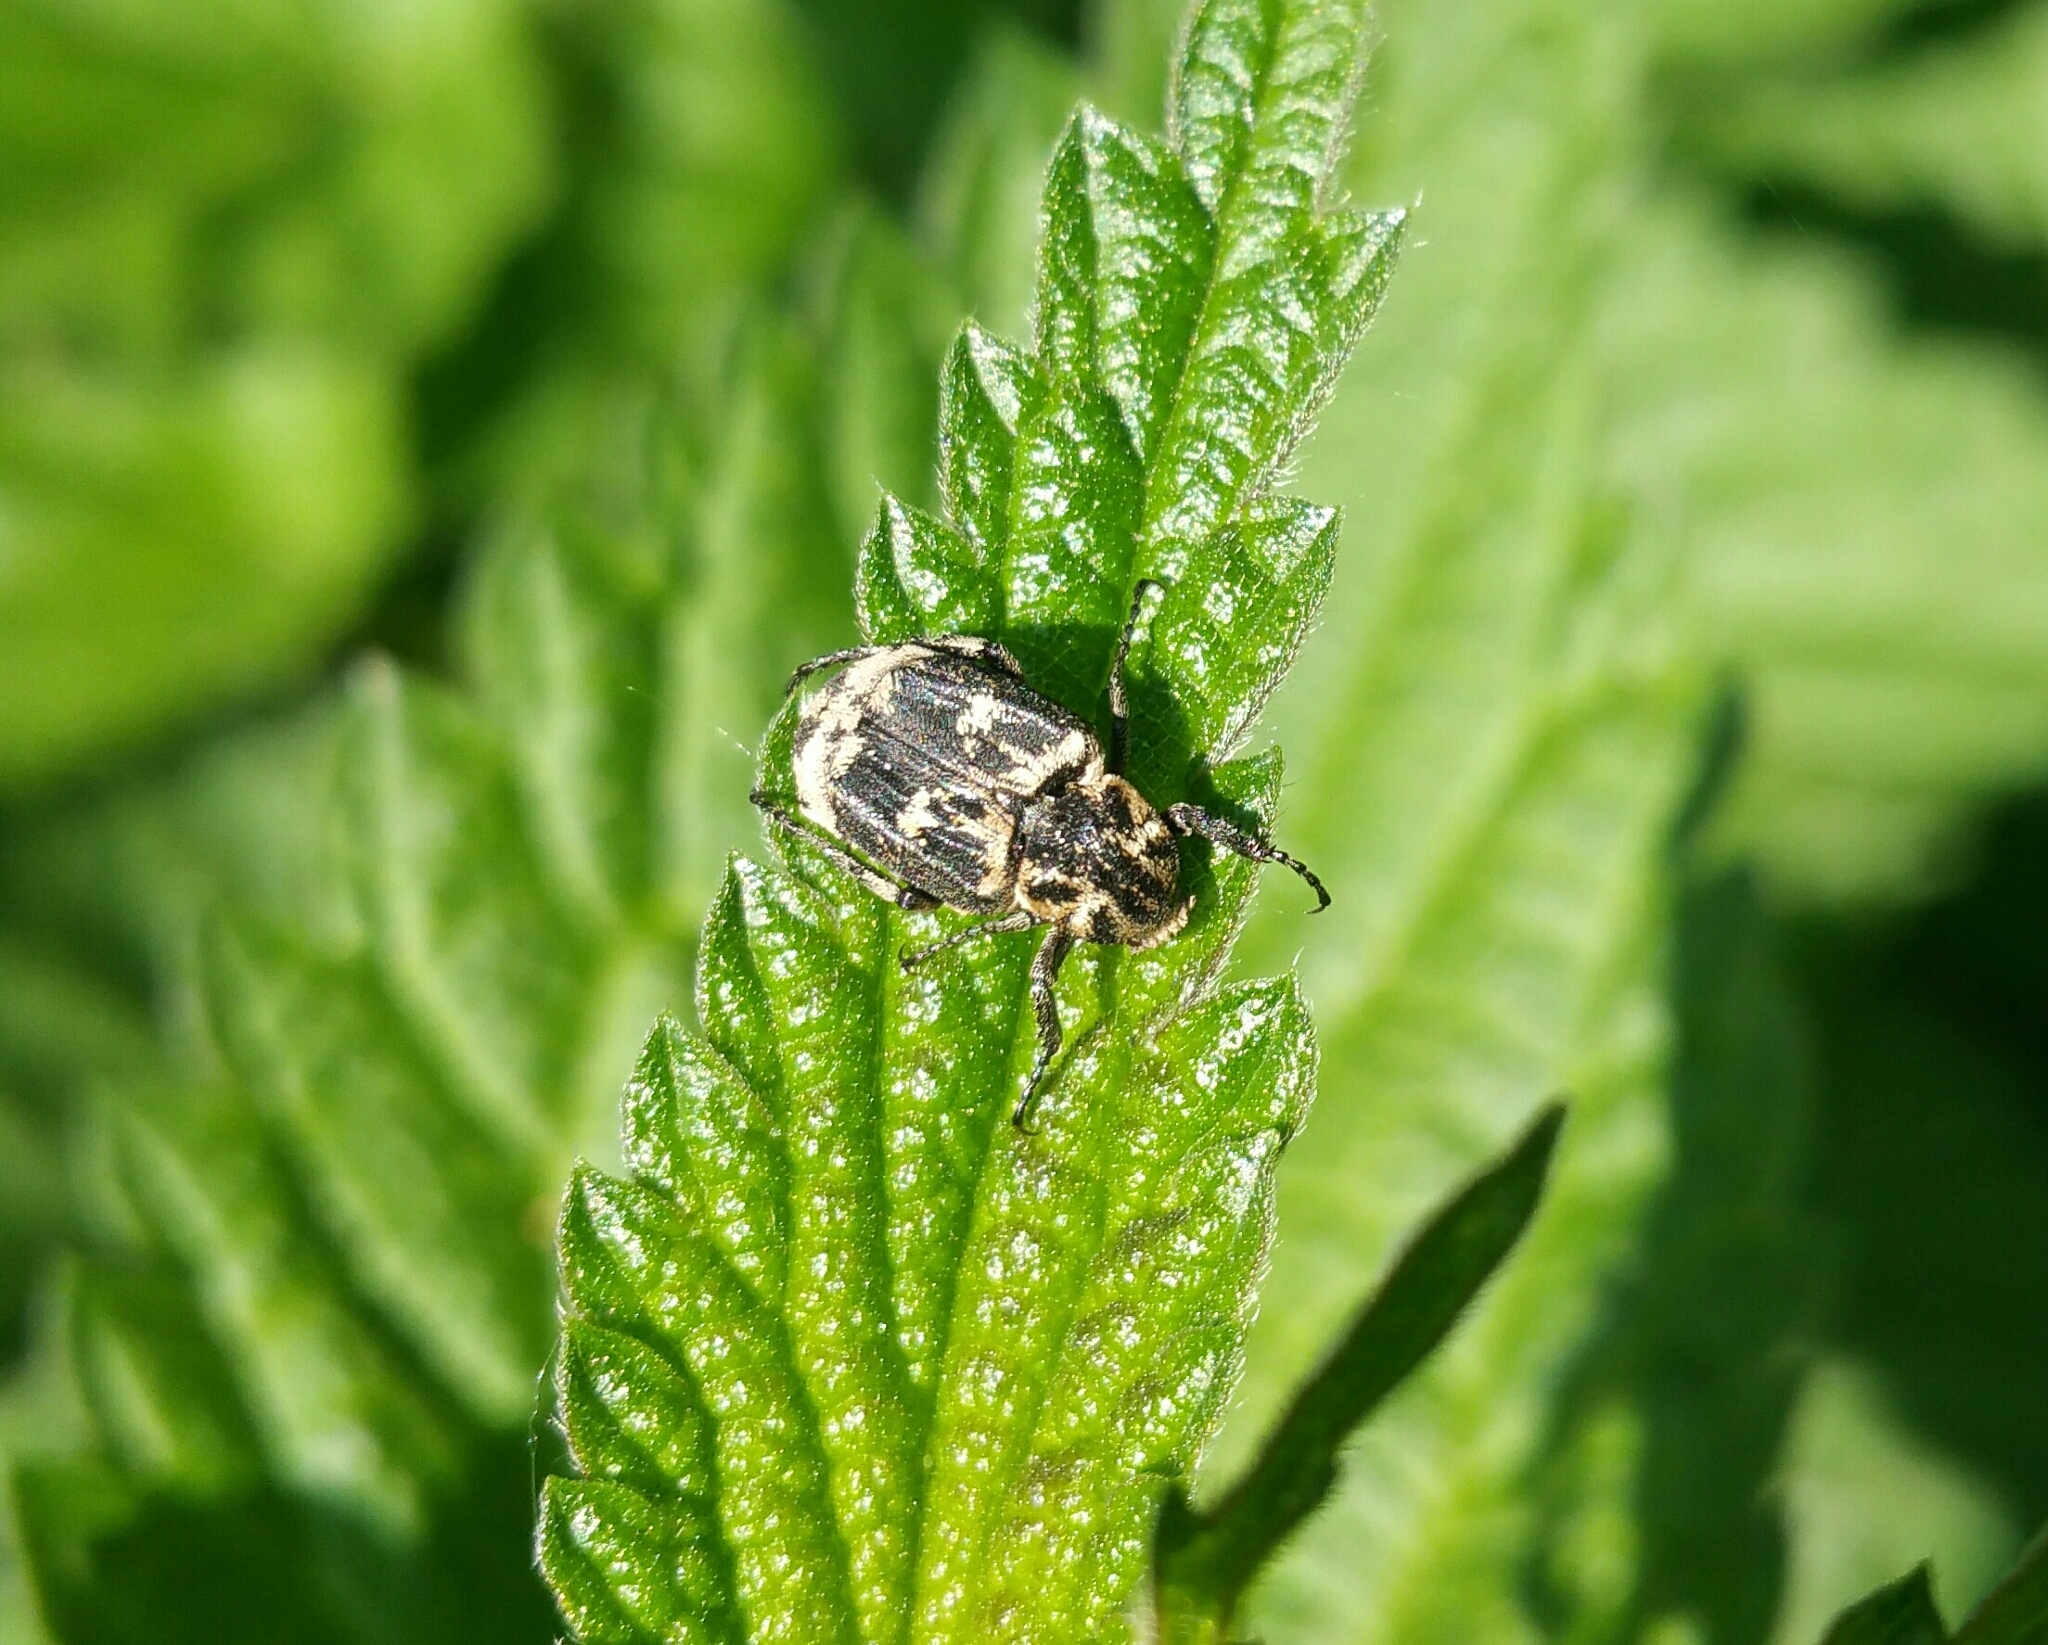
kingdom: Animalia
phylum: Arthropoda
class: Insecta
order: Coleoptera
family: Scarabaeidae
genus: Valgus
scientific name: Valgus hemipterus
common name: Bug flower chafer
